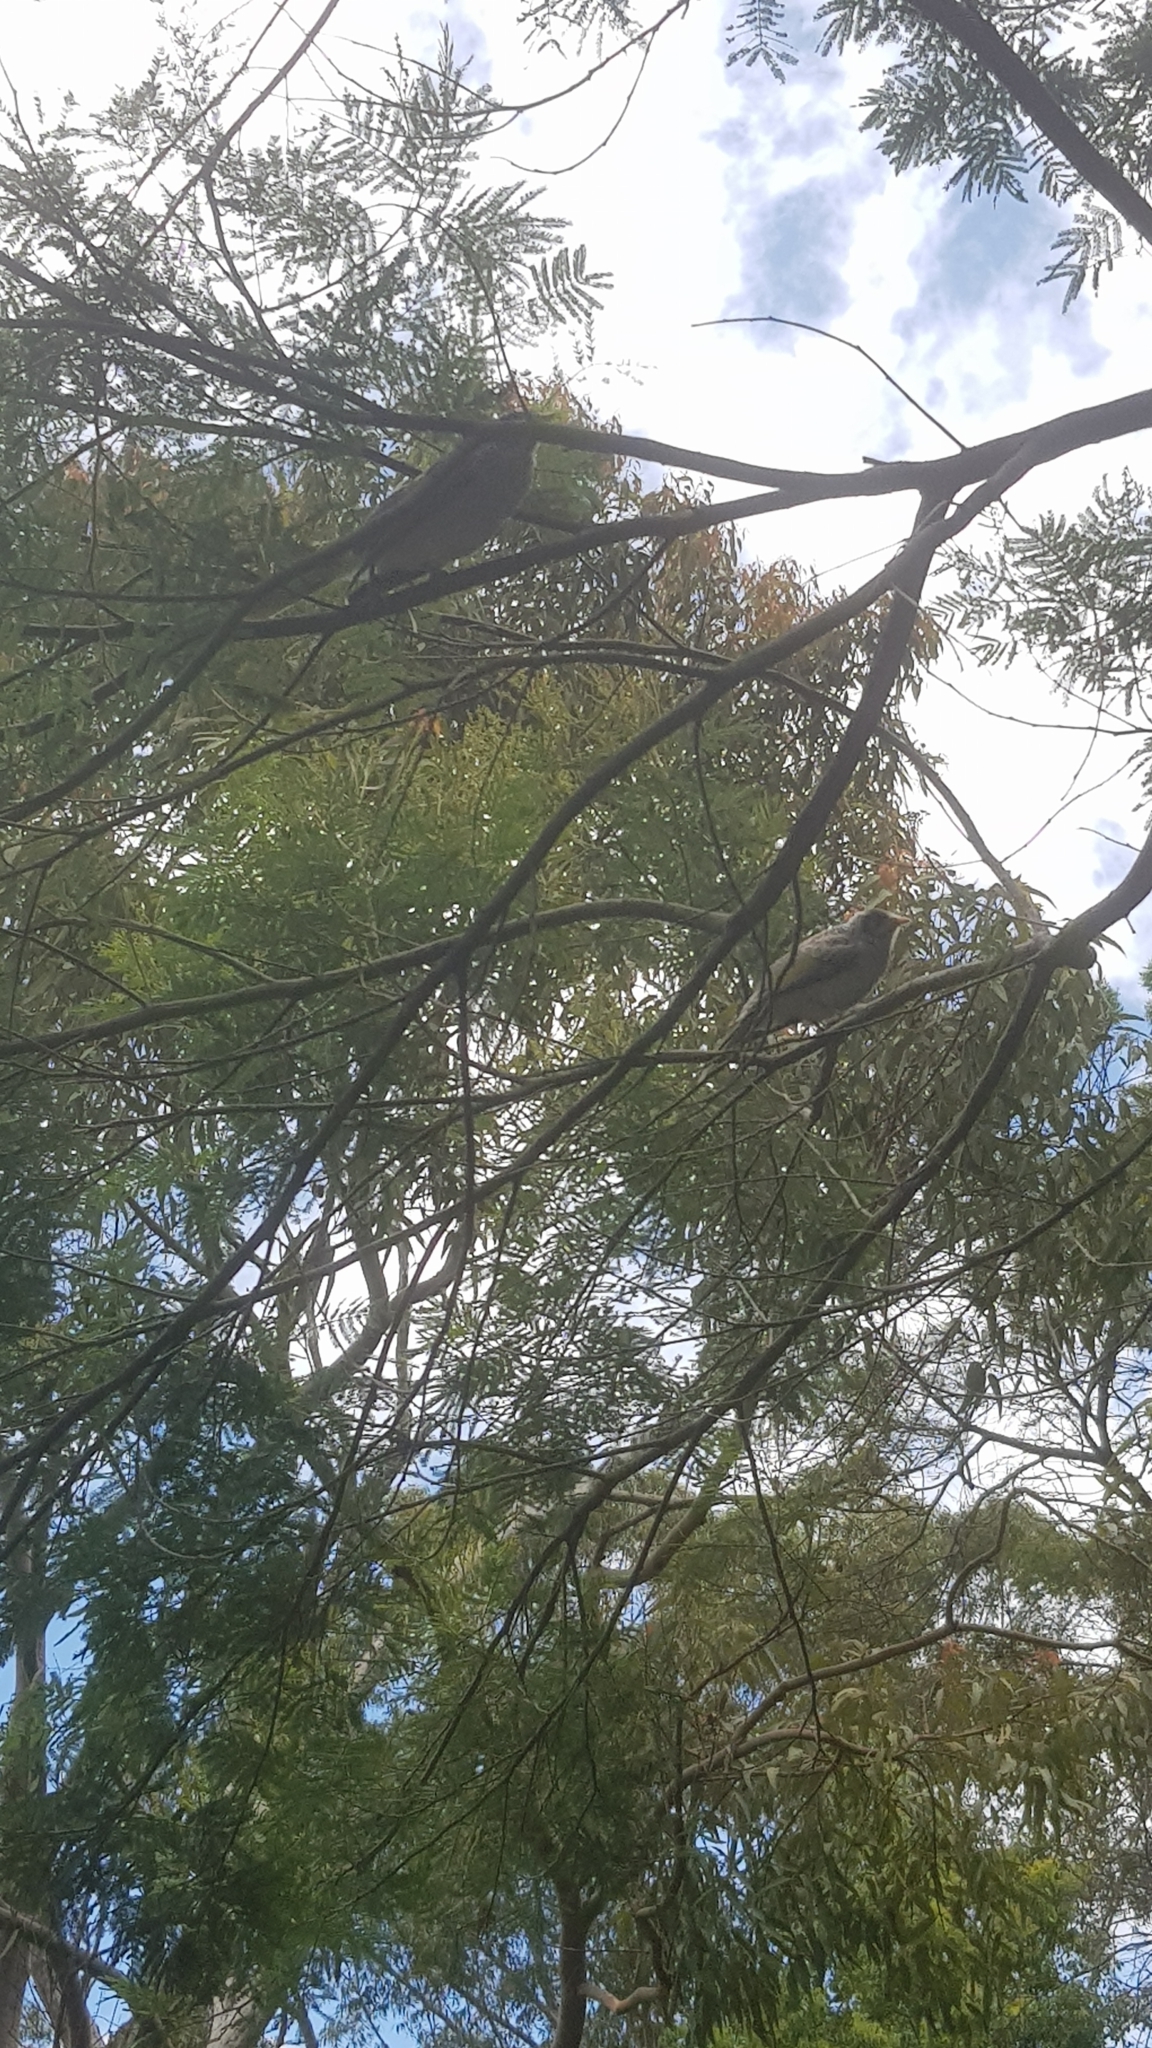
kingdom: Animalia
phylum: Chordata
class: Aves
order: Passeriformes
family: Meliphagidae
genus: Manorina
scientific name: Manorina melanocephala
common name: Noisy miner
